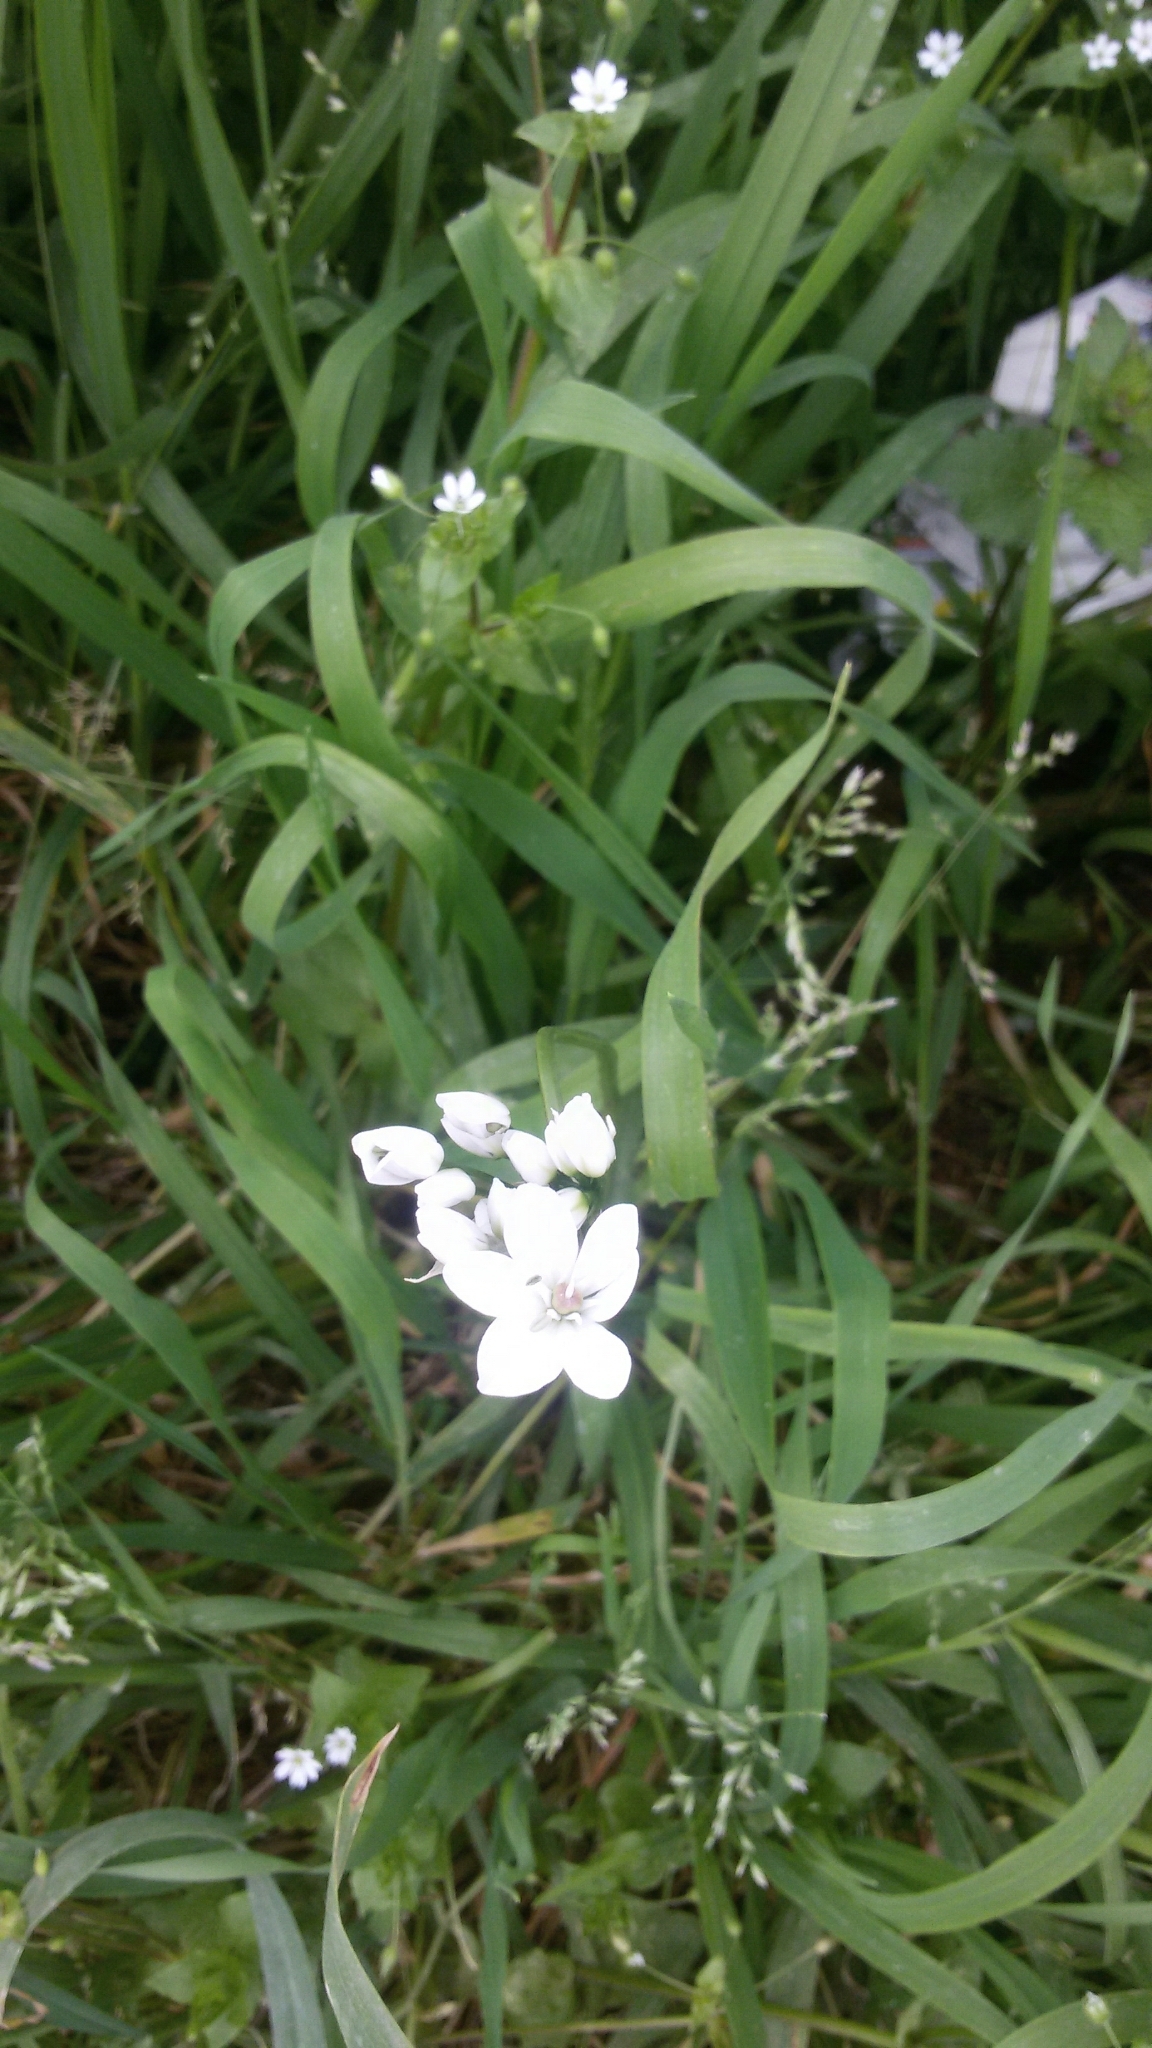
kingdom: Plantae
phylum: Tracheophyta
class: Liliopsida
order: Asparagales
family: Amaryllidaceae
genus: Allium
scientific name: Allium neapolitanum
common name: Neapolitan garlic
